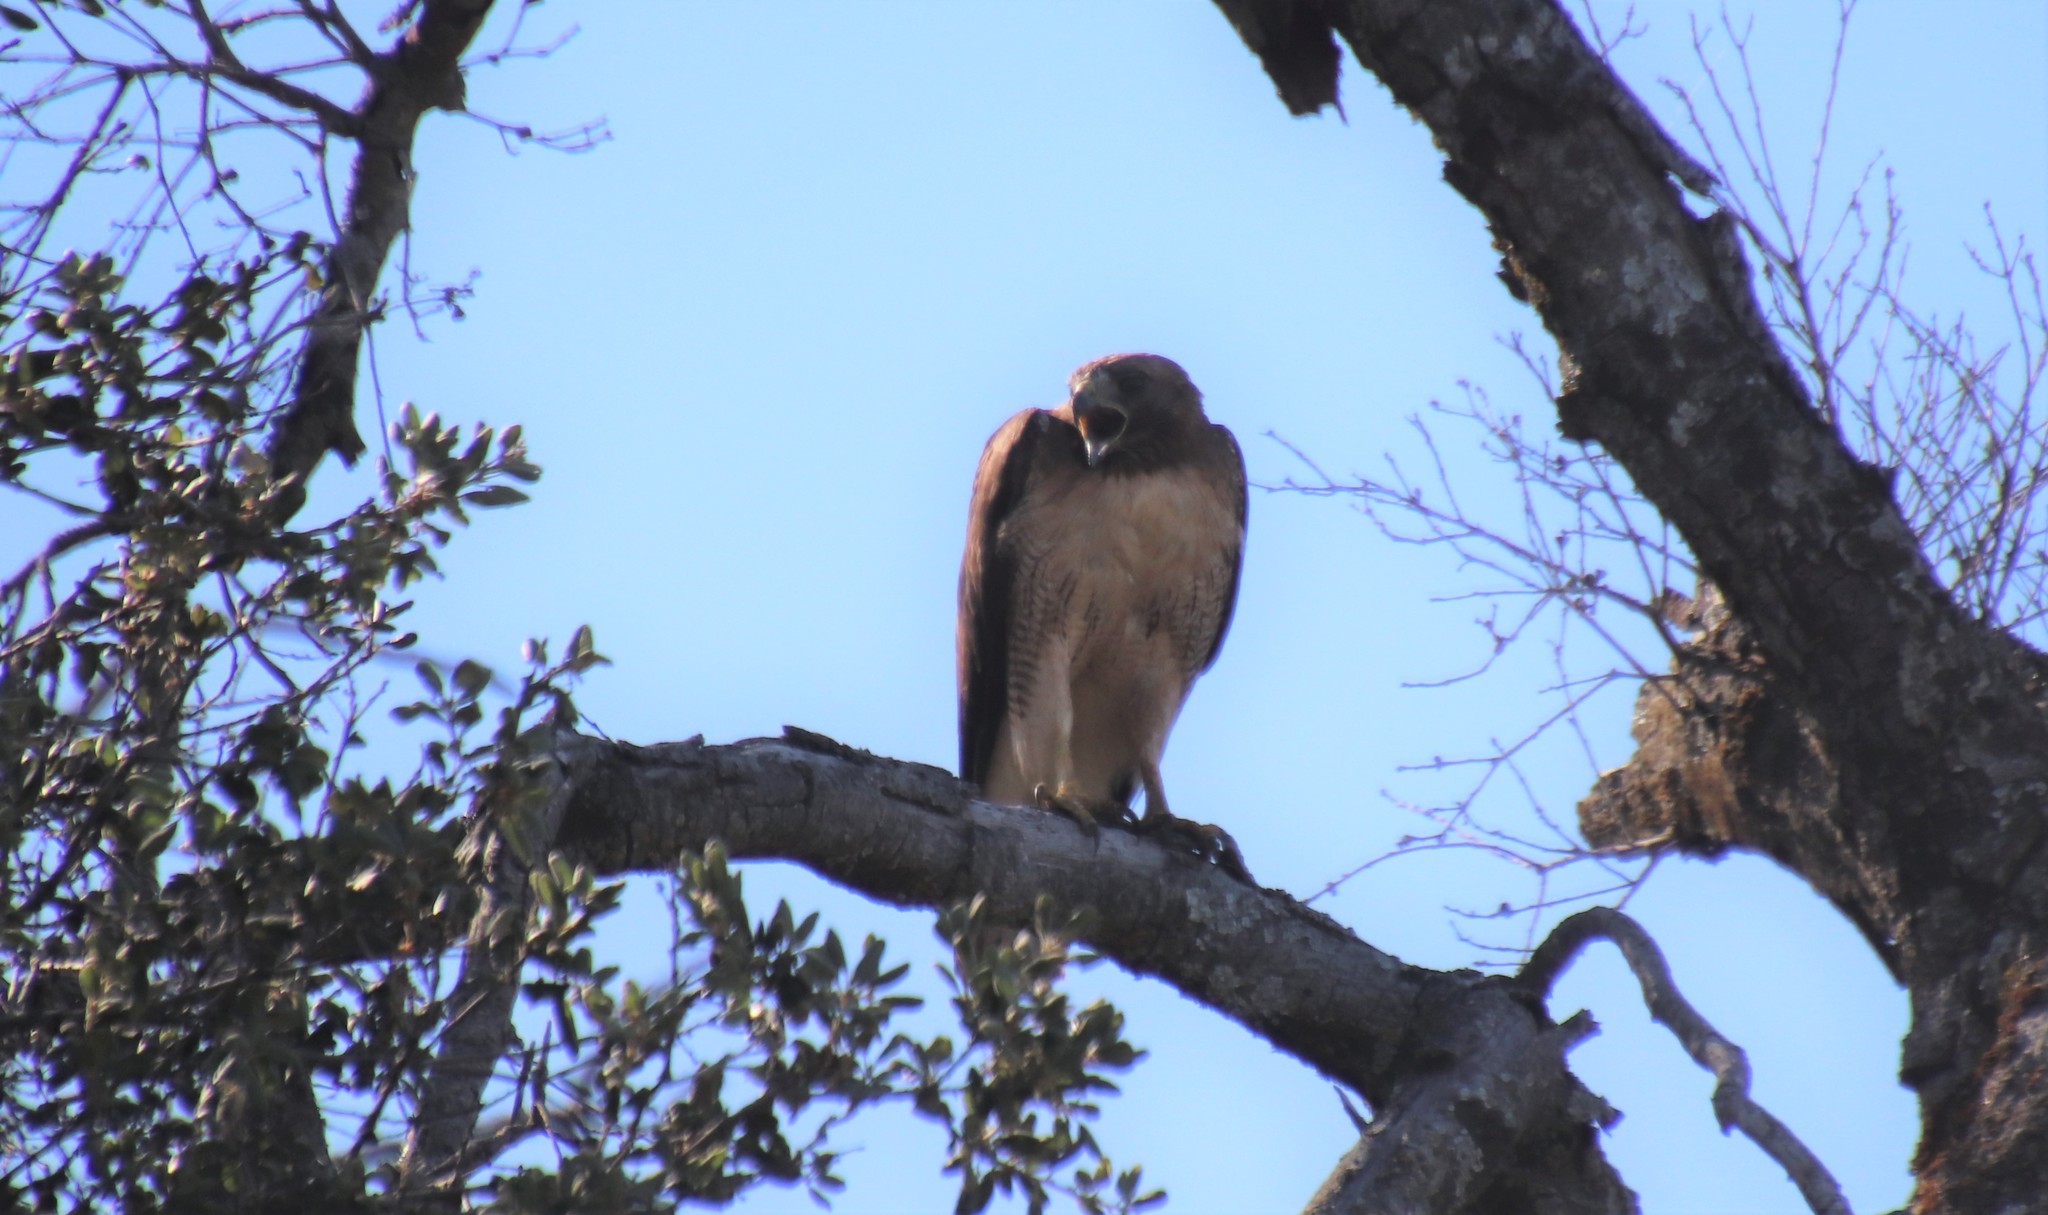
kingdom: Animalia
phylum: Chordata
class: Aves
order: Accipitriformes
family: Accipitridae
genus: Buteo
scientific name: Buteo jamaicensis
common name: Red-tailed hawk
